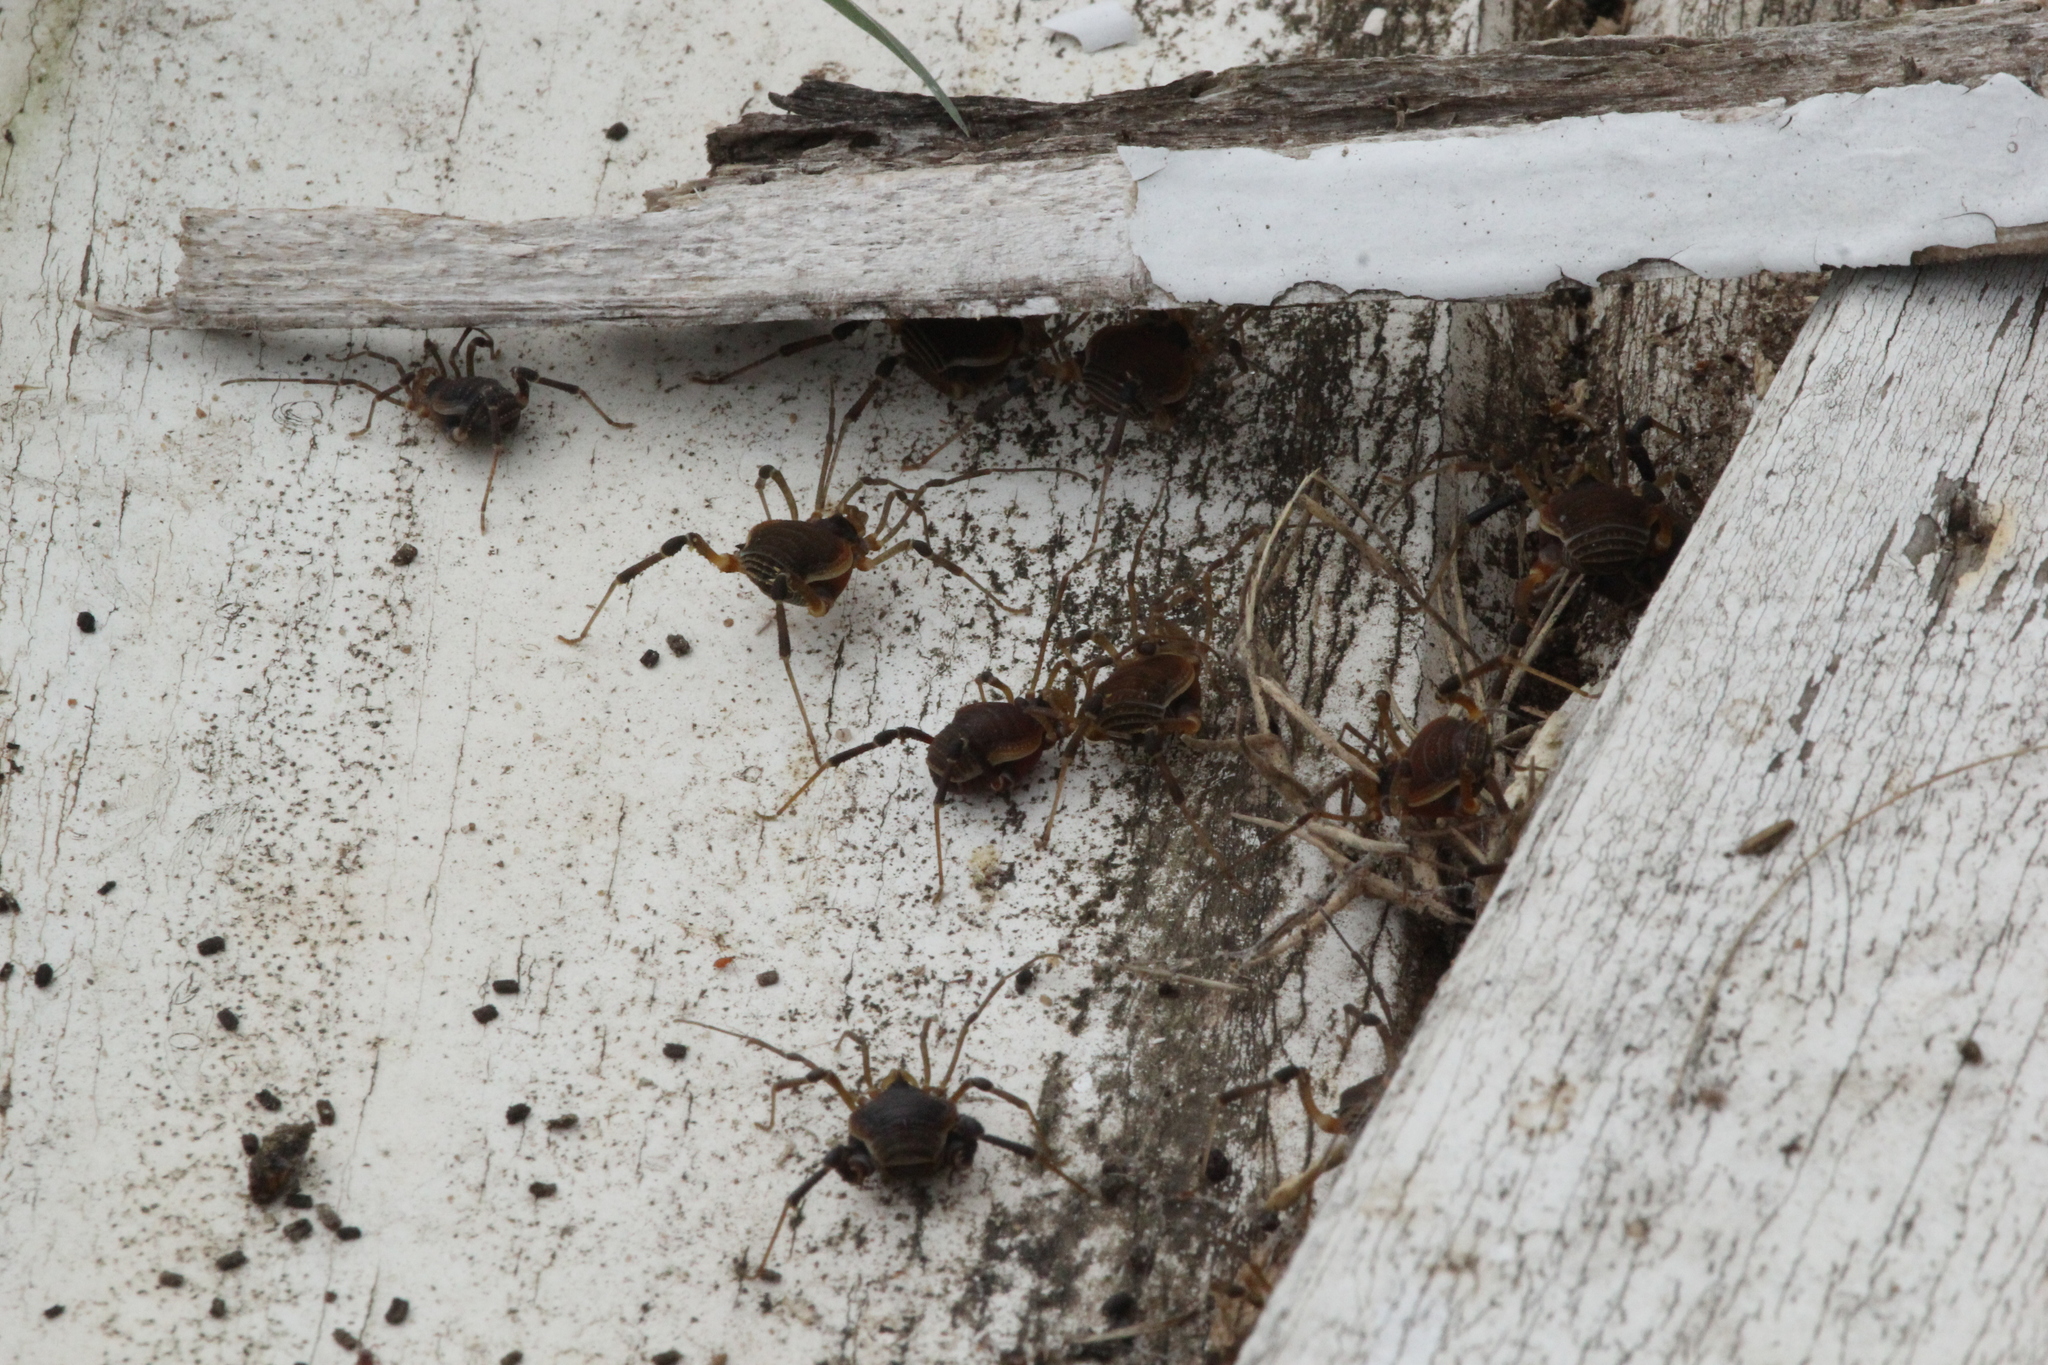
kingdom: Animalia
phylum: Arthropoda
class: Arachnida
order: Opiliones
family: Gonyleptidae
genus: Acanthopachylus
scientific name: Acanthopachylus aculeatus
